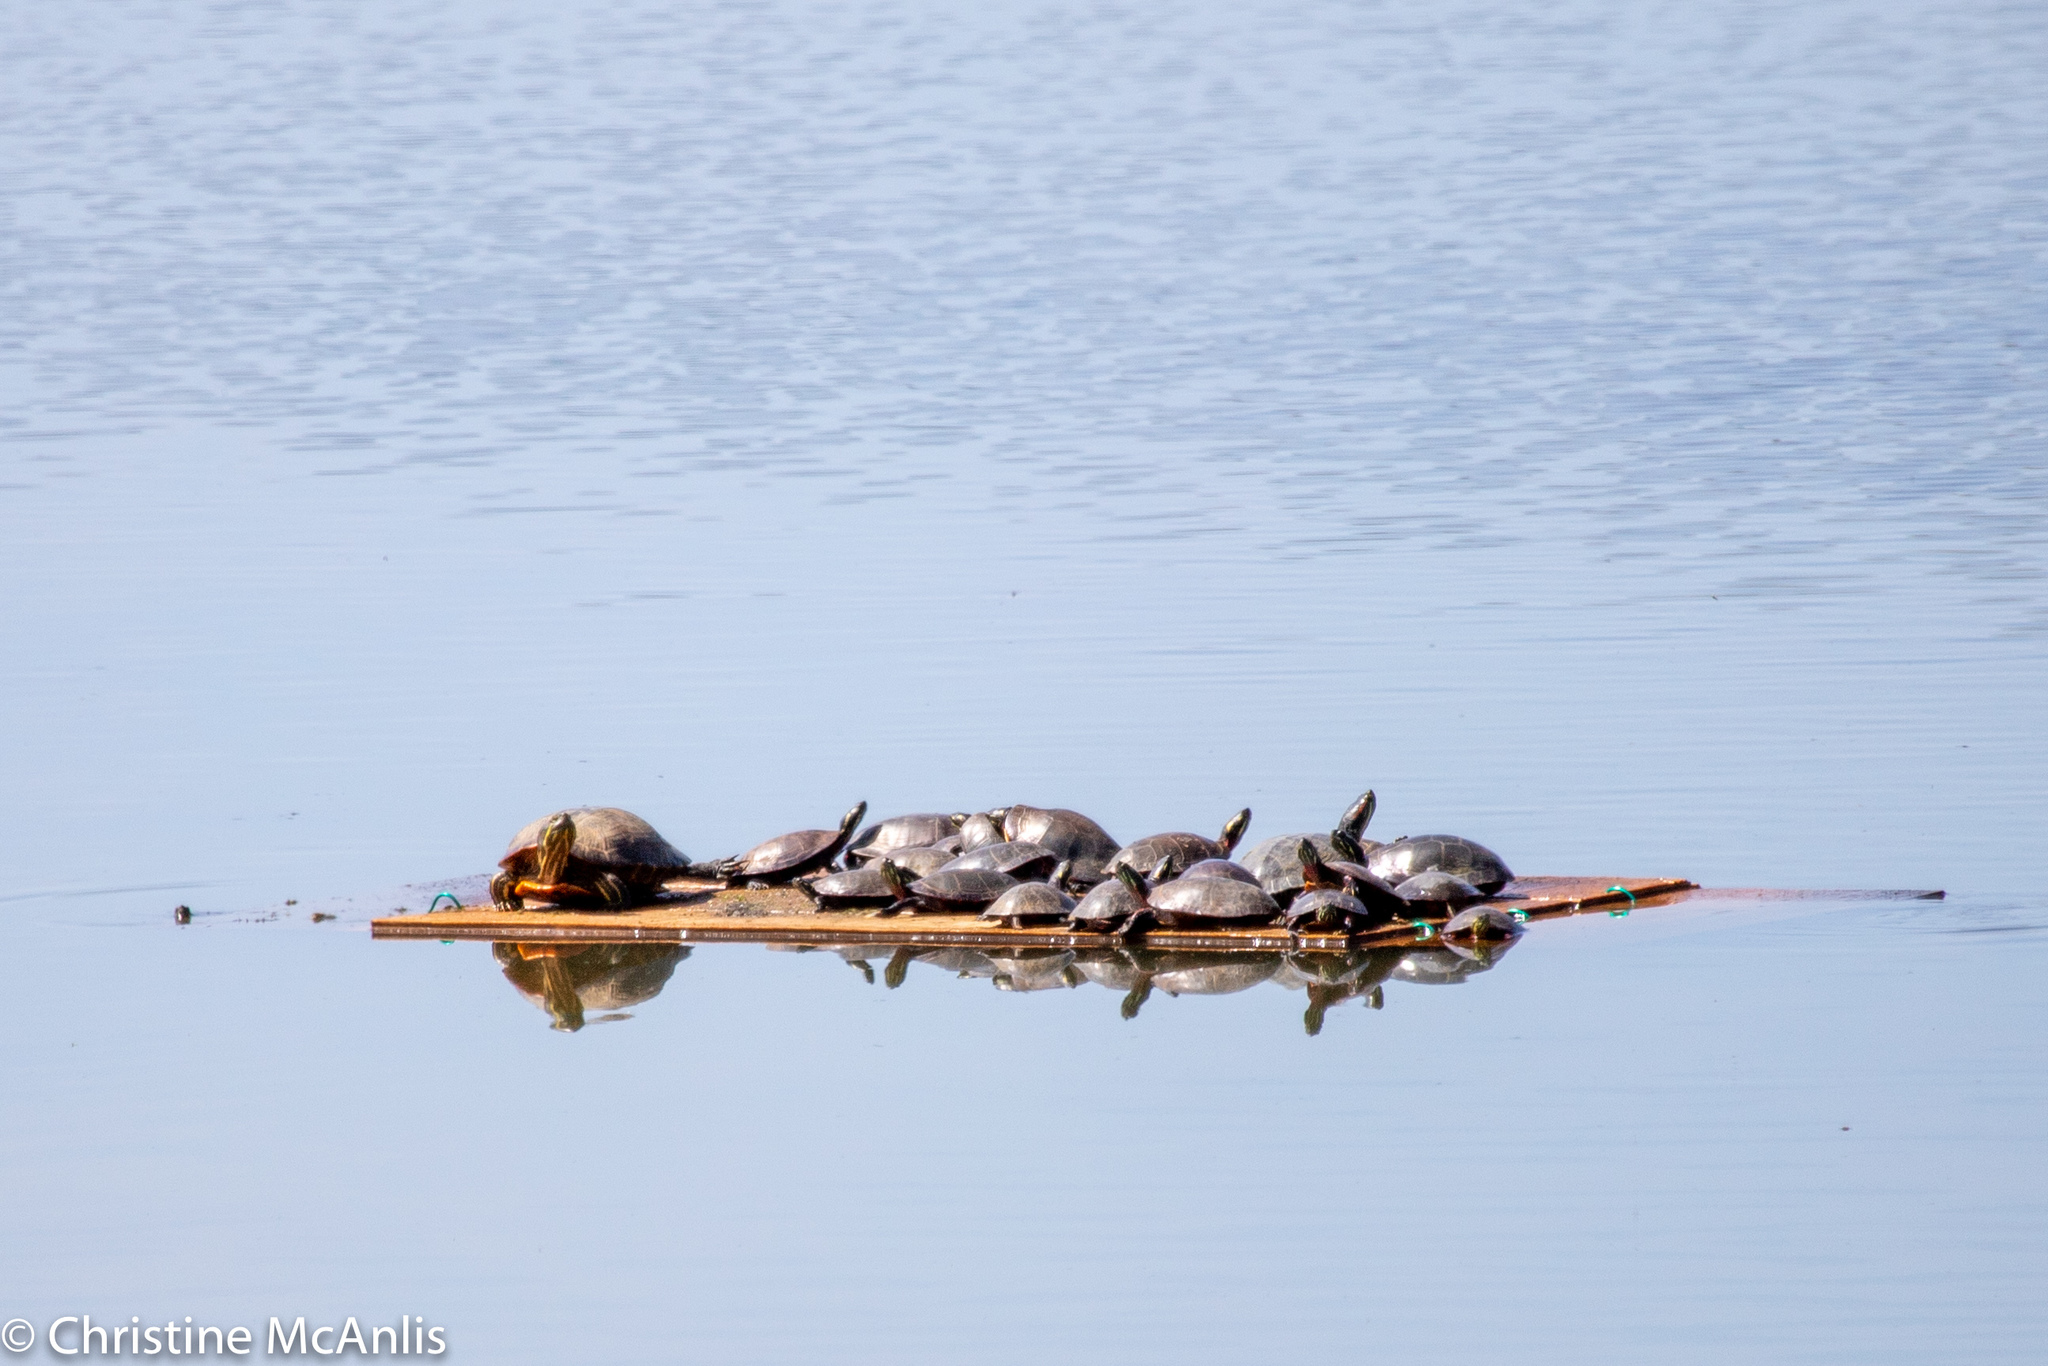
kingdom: Animalia
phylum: Chordata
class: Testudines
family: Emydidae
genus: Chrysemys
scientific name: Chrysemys picta
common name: Painted turtle
